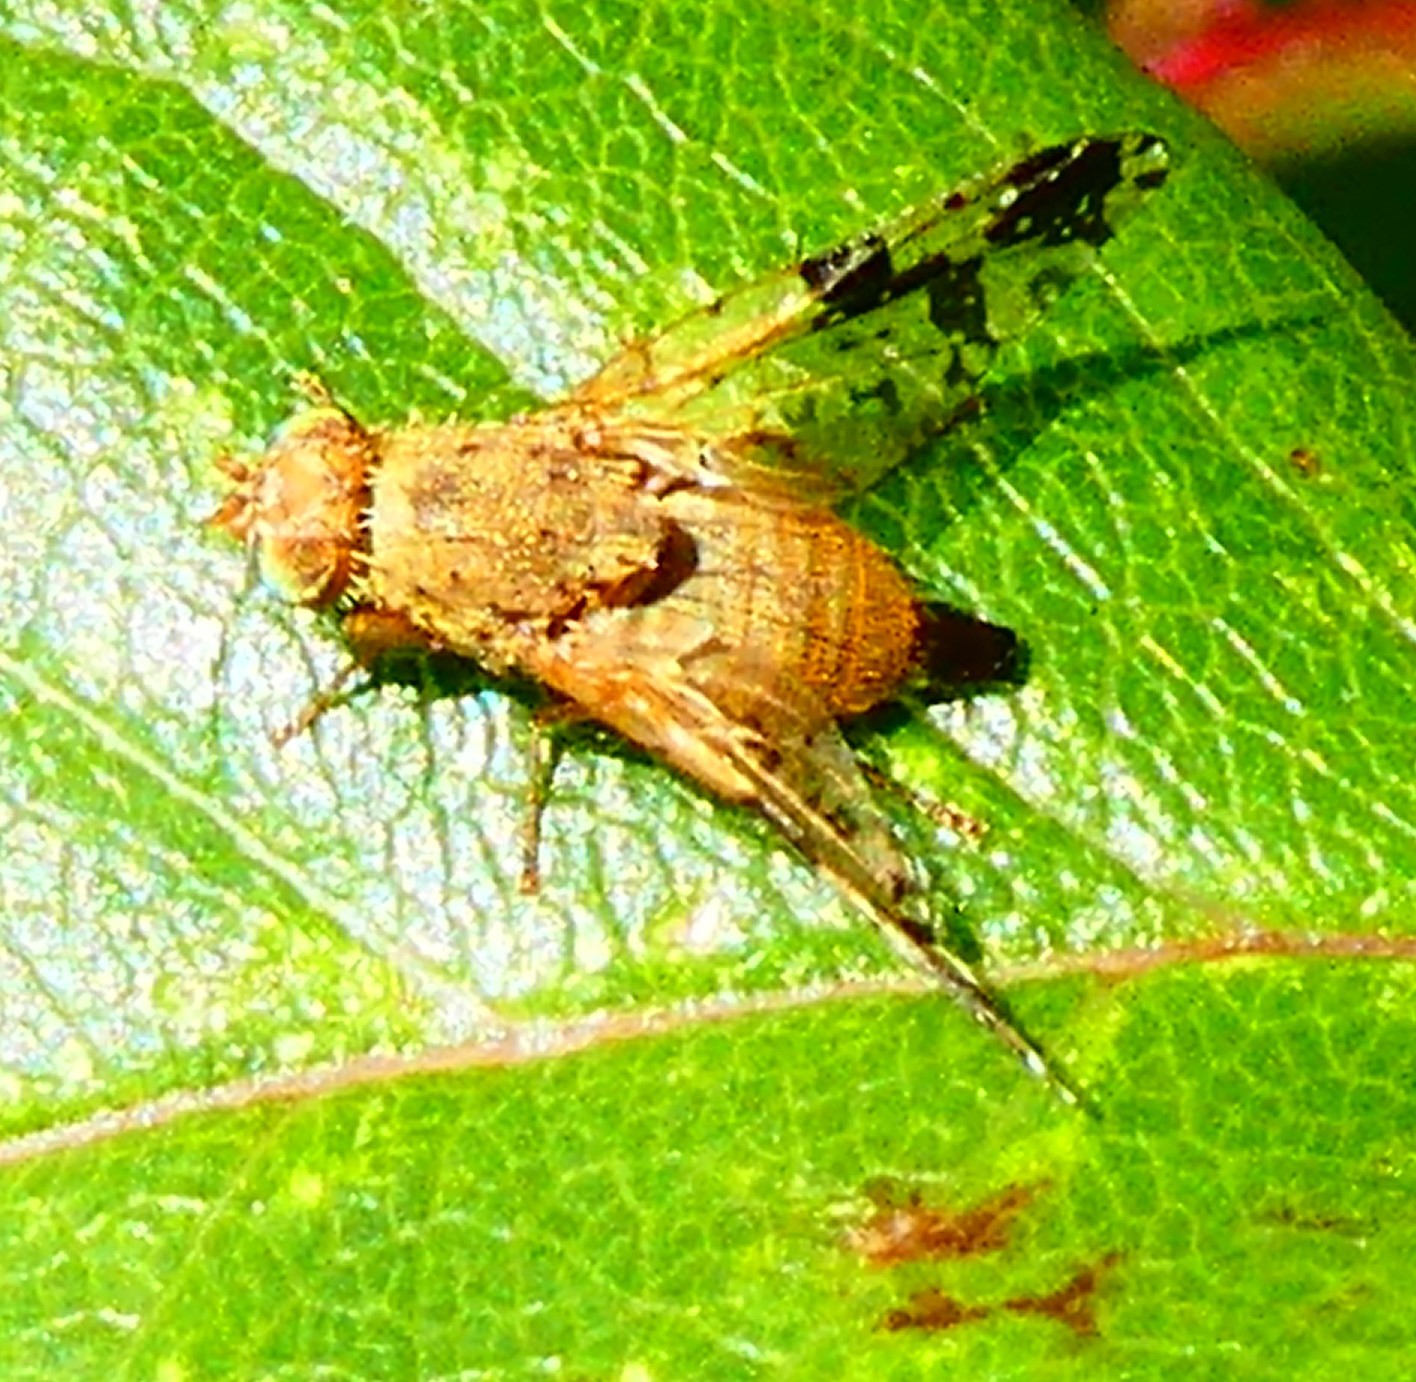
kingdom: Animalia
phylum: Arthropoda
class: Insecta
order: Diptera
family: Tephritidae
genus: Tephritis
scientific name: Tephritis bardanae
